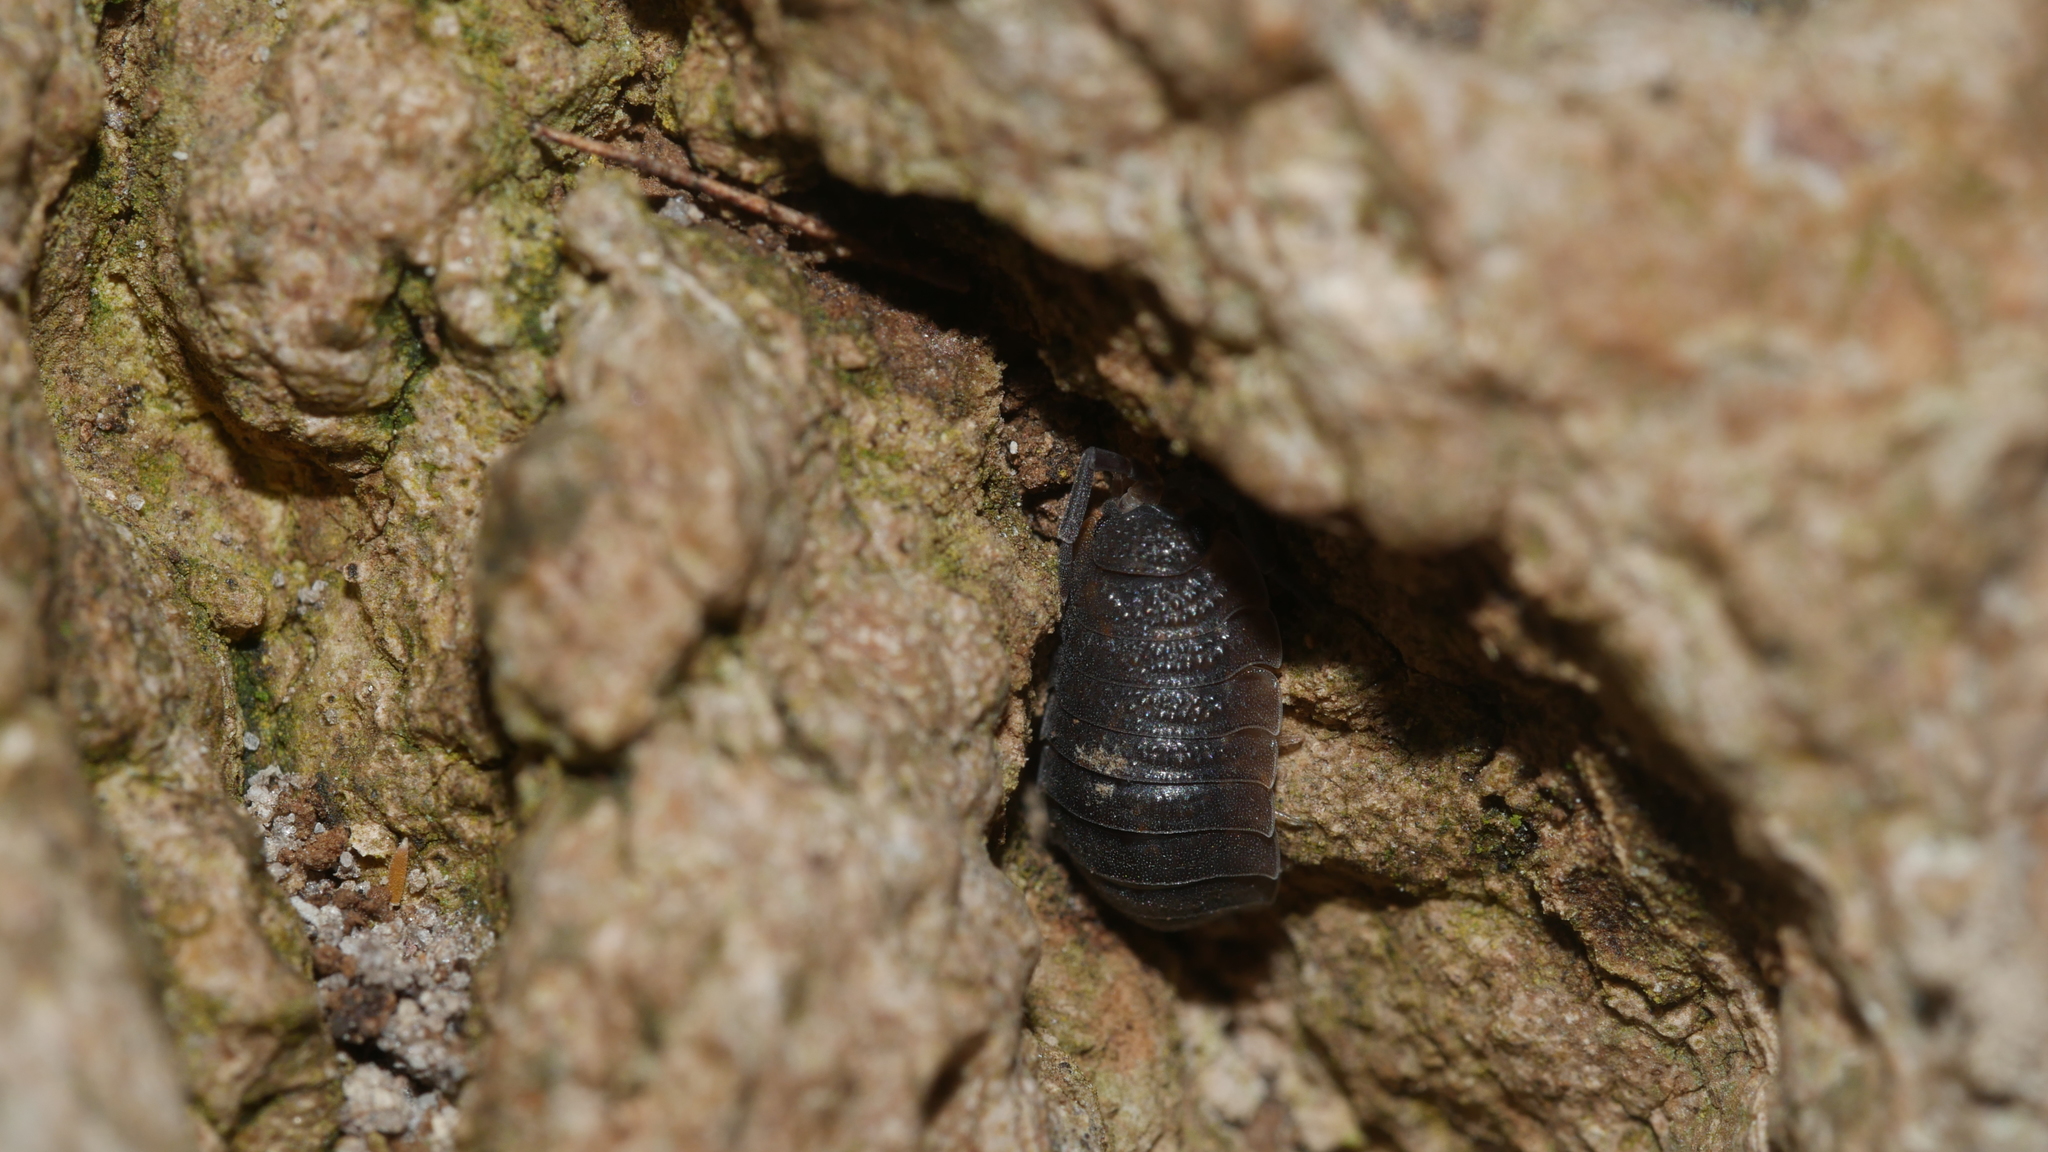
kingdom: Animalia
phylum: Arthropoda
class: Malacostraca
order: Isopoda
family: Porcellionidae
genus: Porcellio
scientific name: Porcellio scaber
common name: Common rough woodlouse
